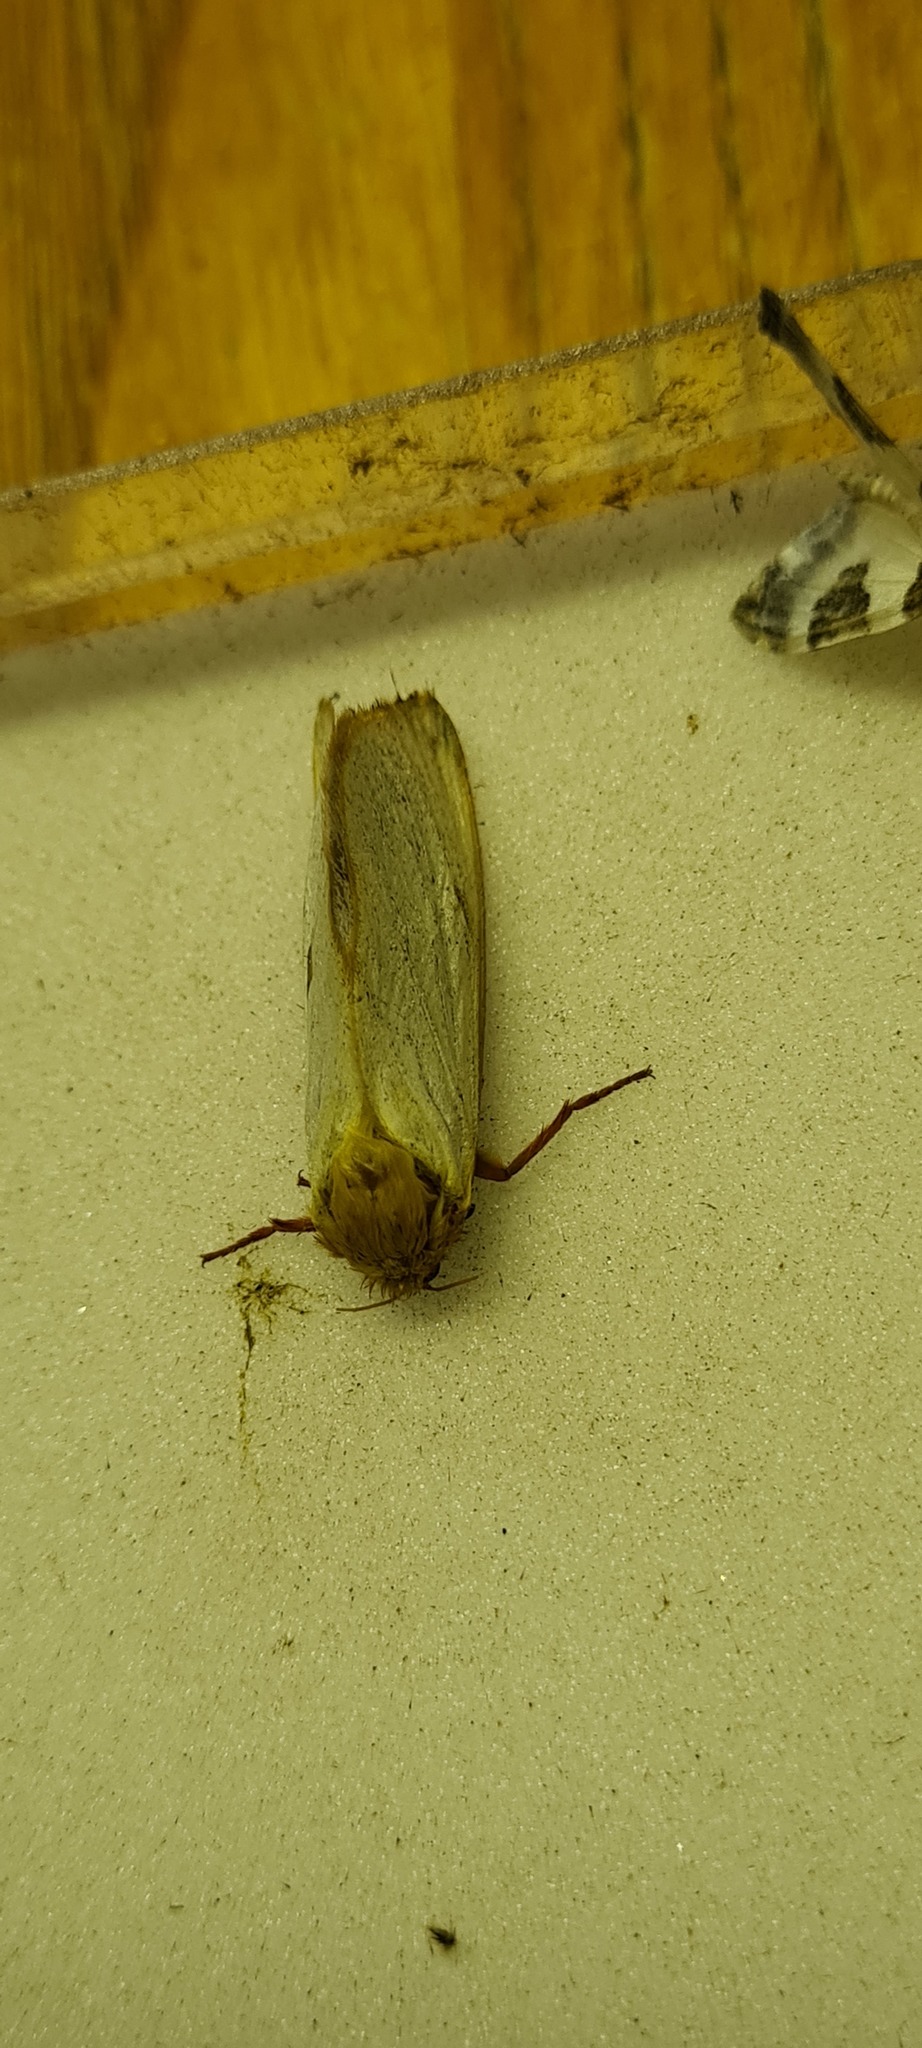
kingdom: Animalia
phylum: Arthropoda
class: Insecta
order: Lepidoptera
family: Hepialidae
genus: Hepialus
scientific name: Hepialus humuli
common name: Ghost moth
